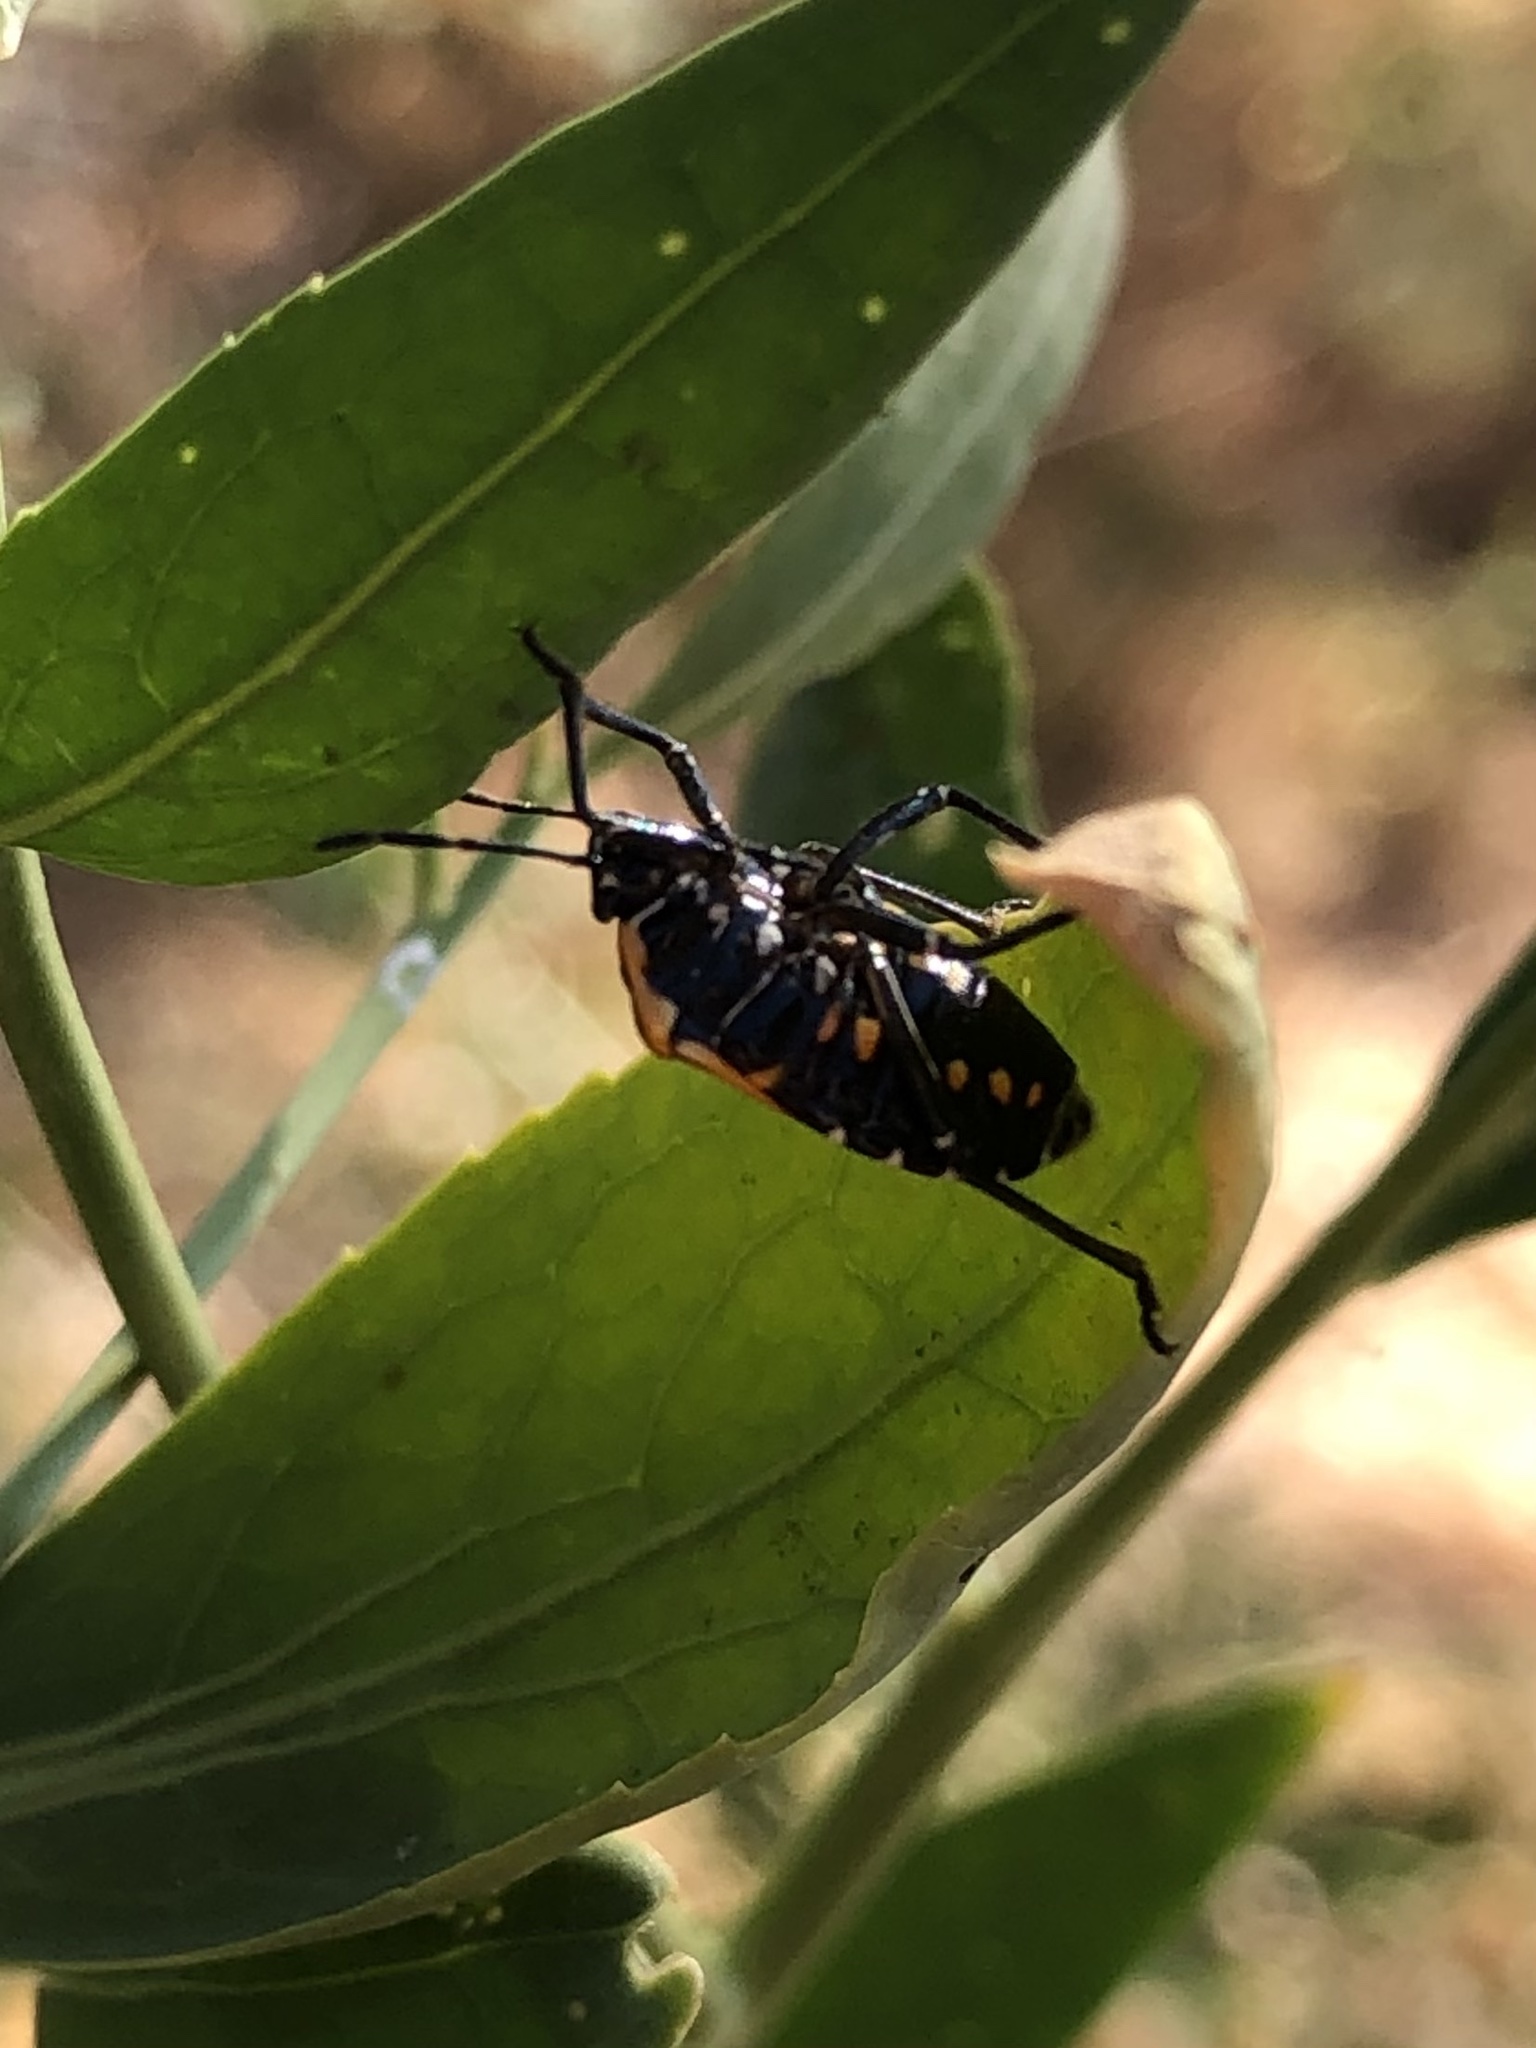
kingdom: Animalia
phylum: Arthropoda
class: Insecta
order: Hemiptera
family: Pentatomidae
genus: Murgantia
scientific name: Murgantia histrionica
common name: Harlequin bug
